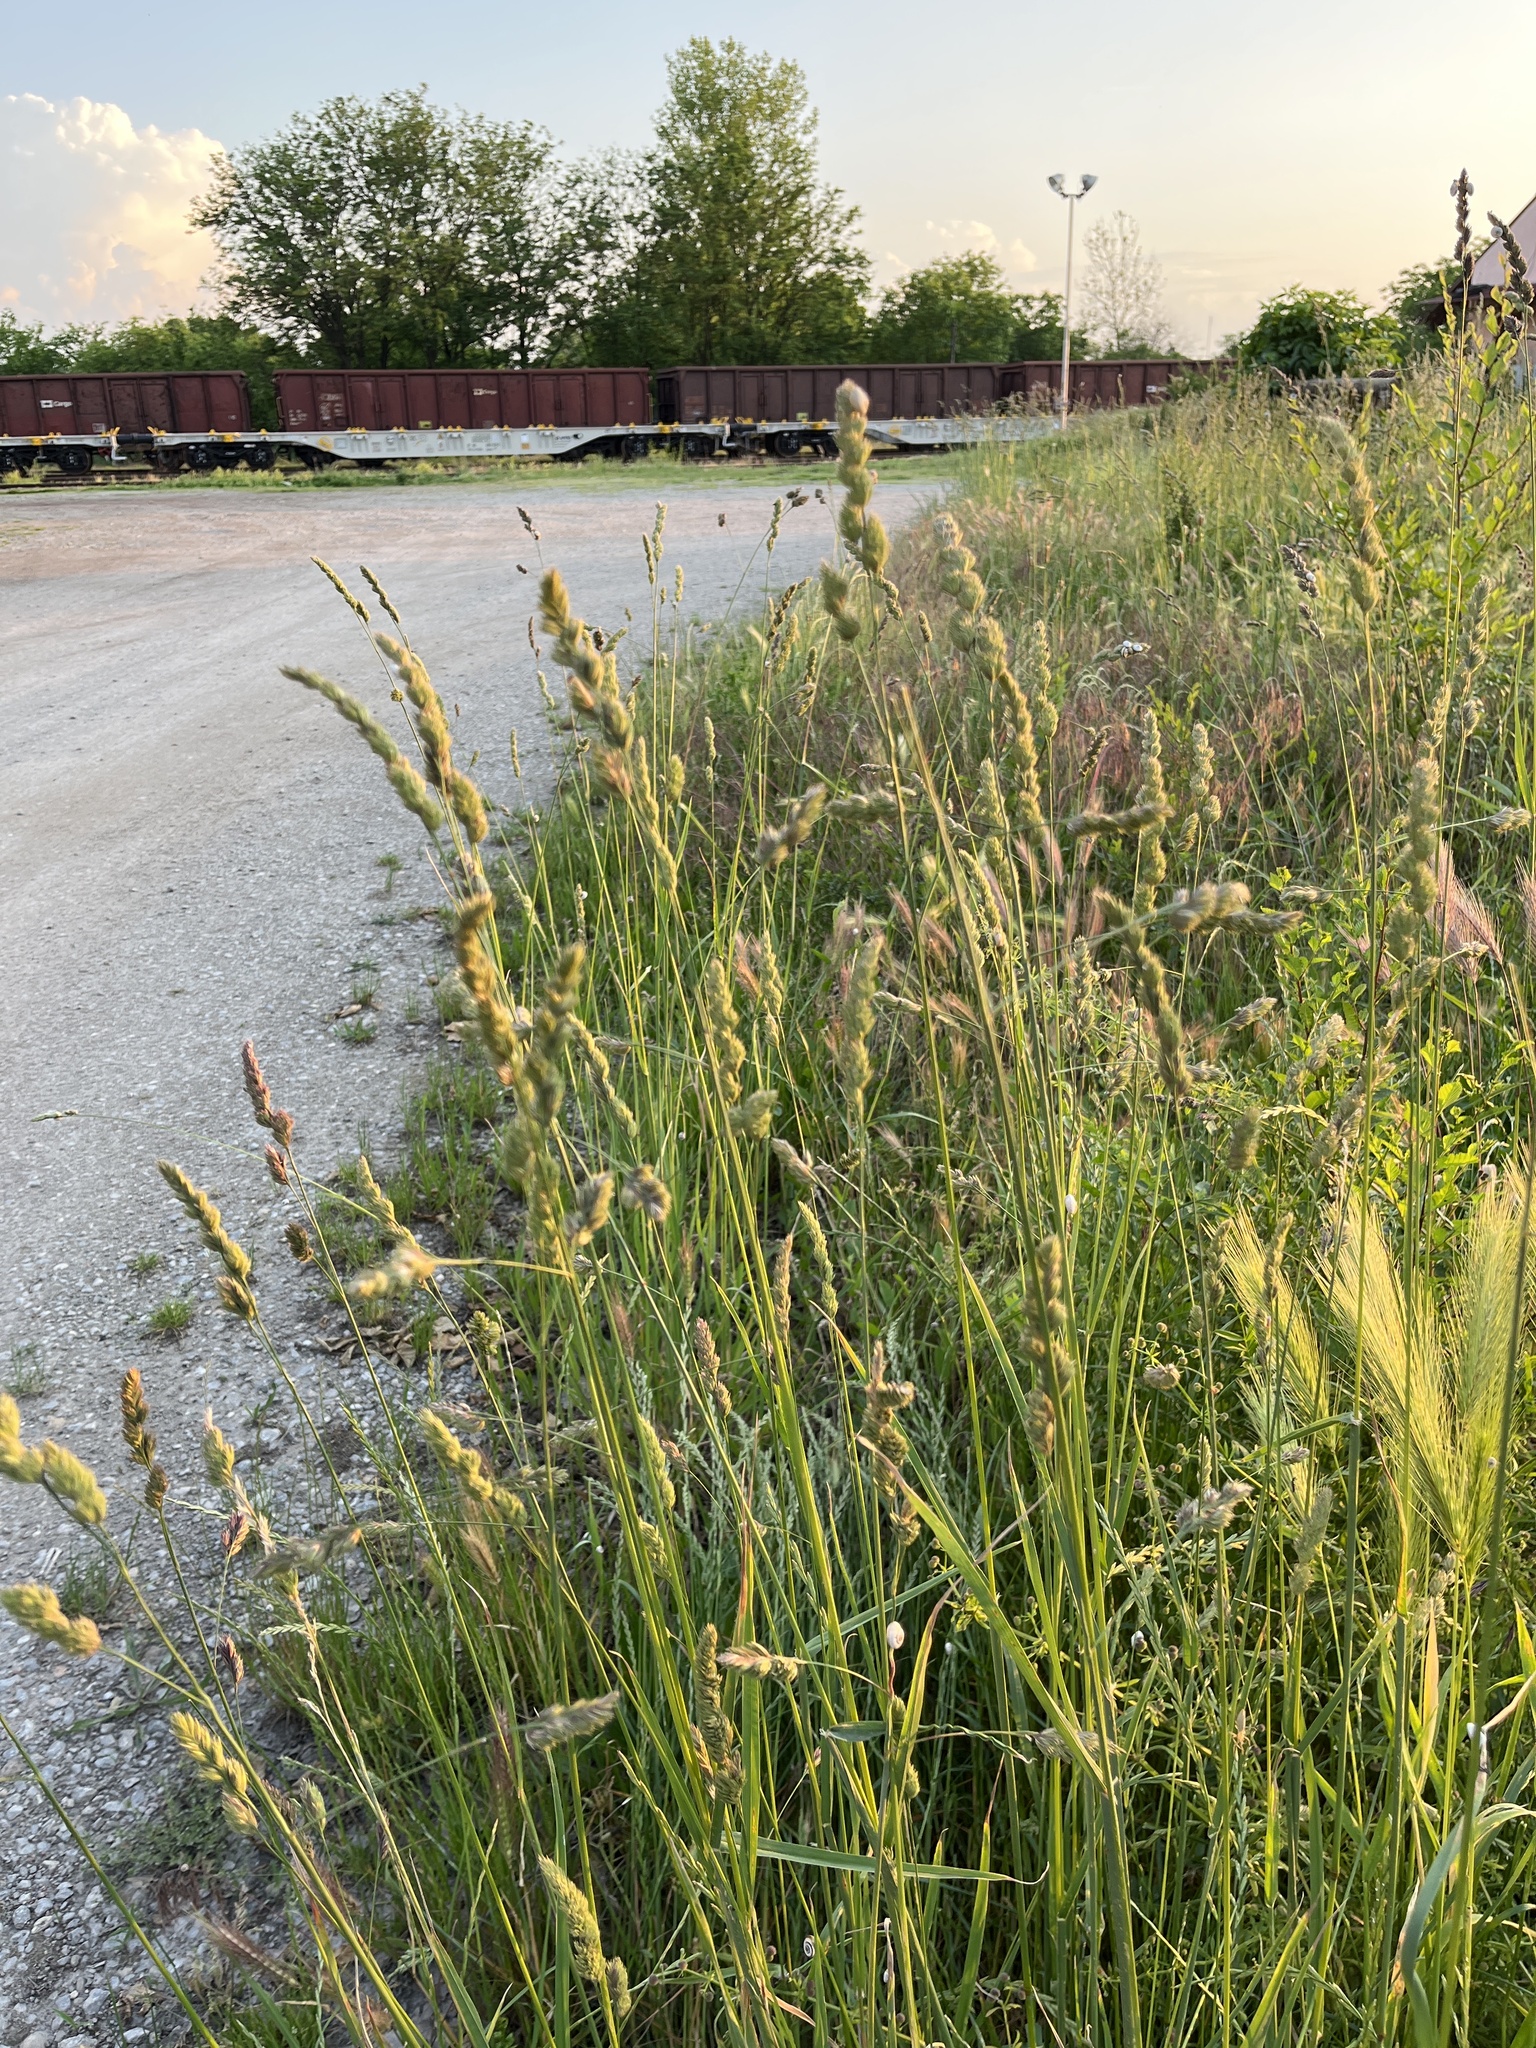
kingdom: Plantae
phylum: Tracheophyta
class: Liliopsida
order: Poales
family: Poaceae
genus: Dactylis
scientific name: Dactylis glomerata
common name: Orchardgrass
